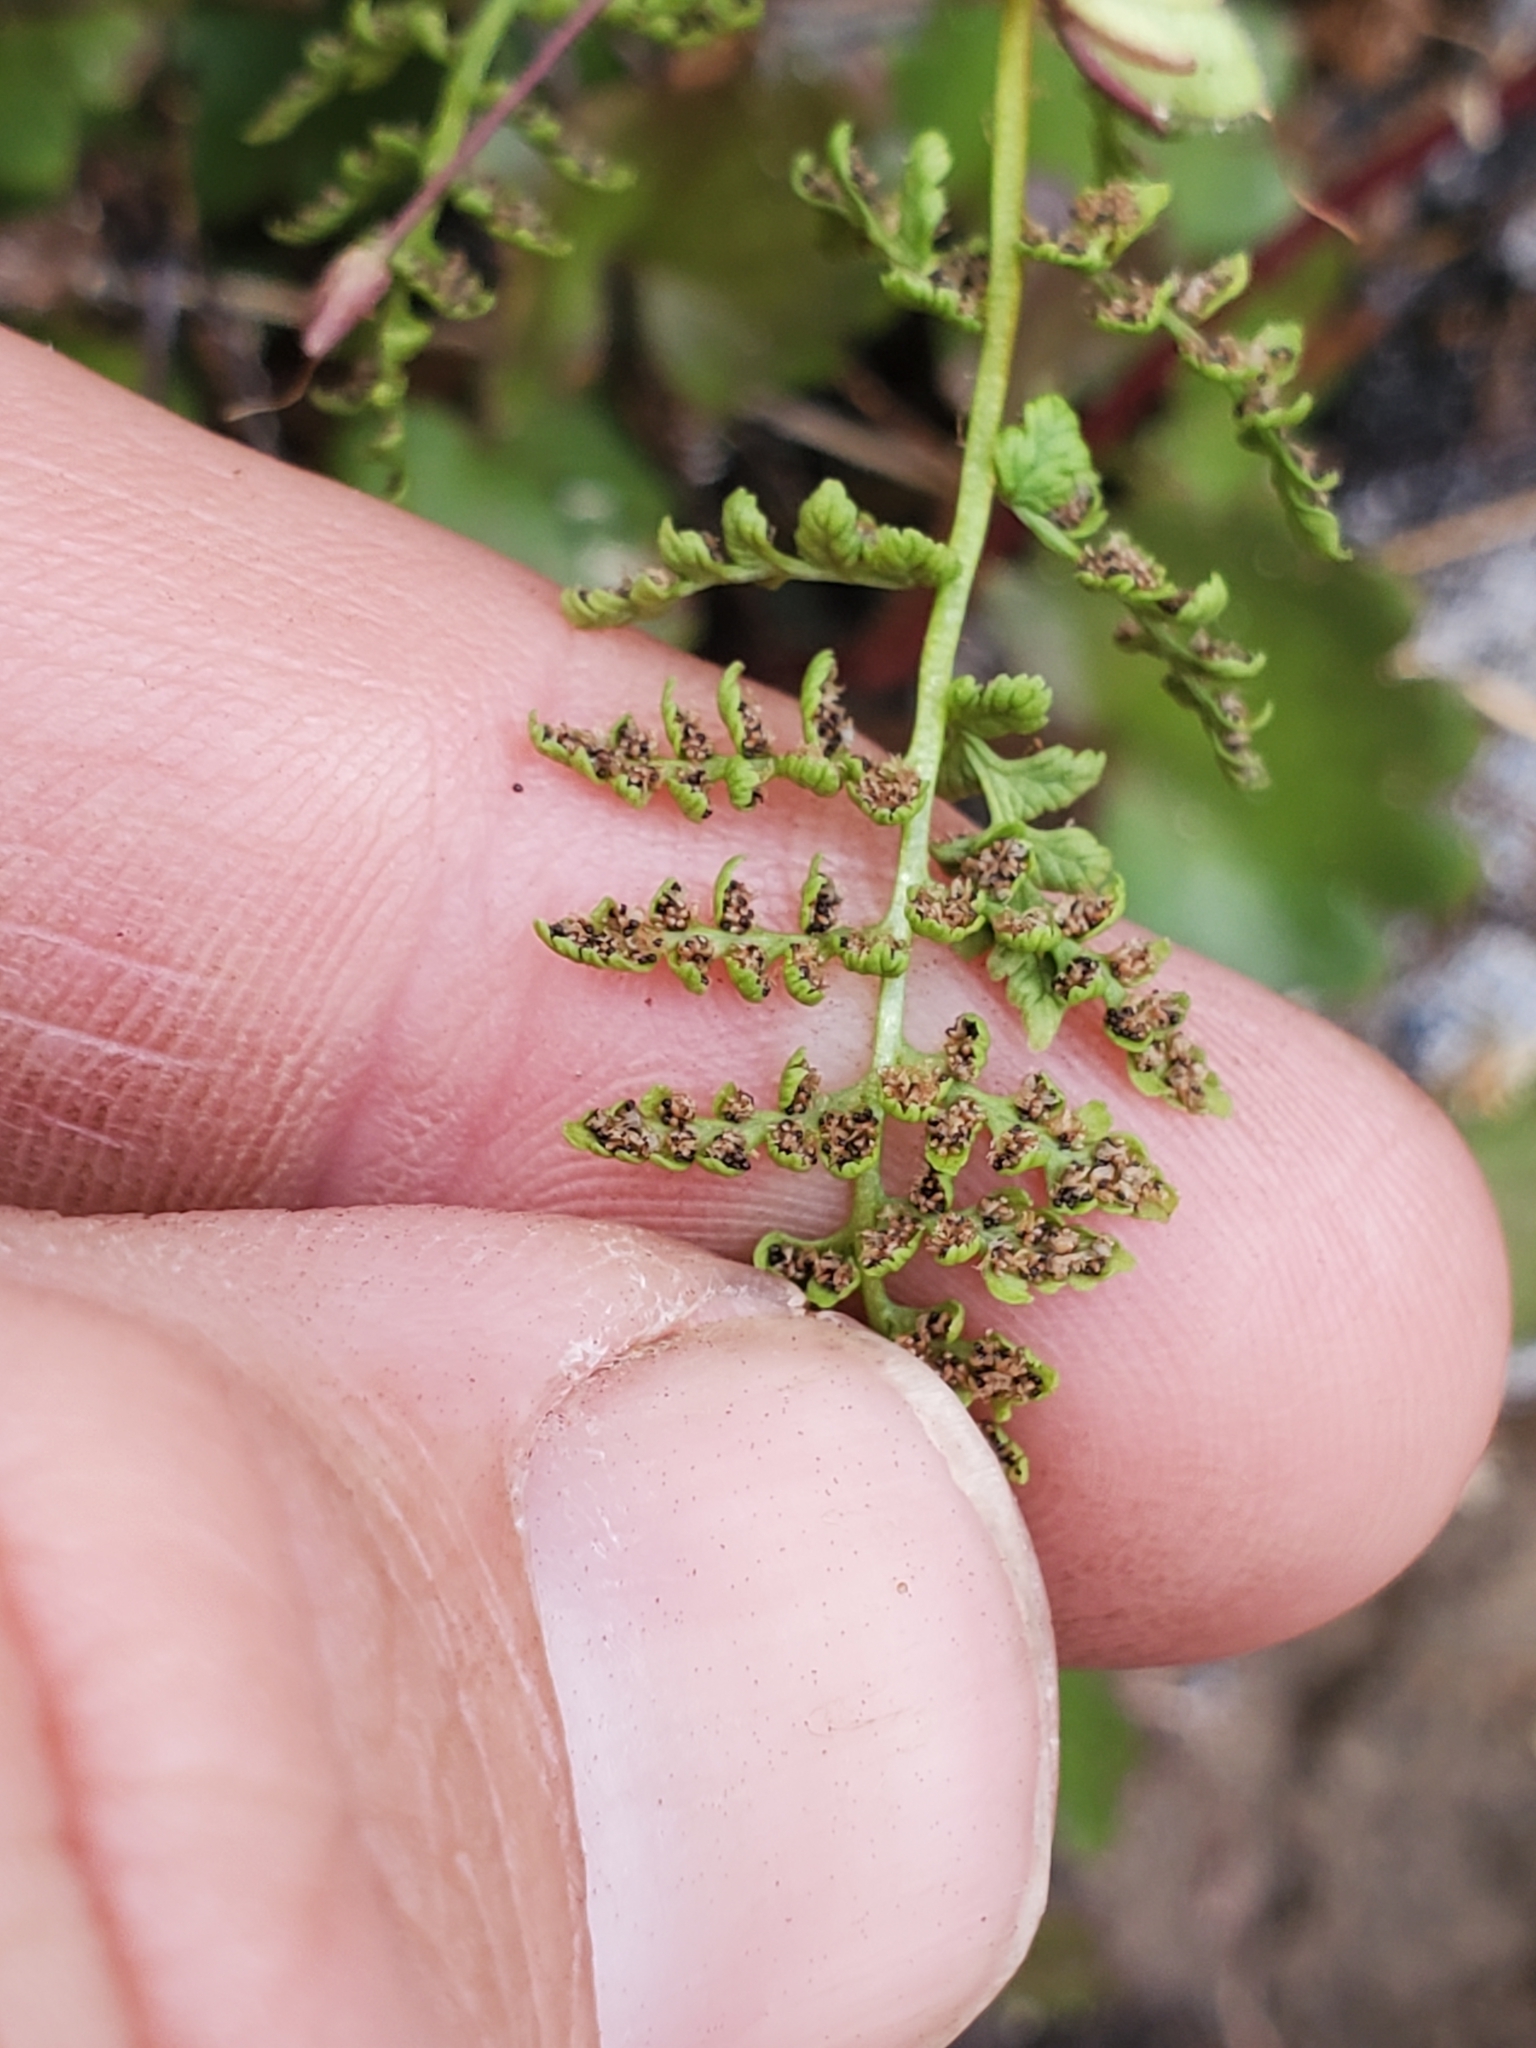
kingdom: Plantae
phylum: Tracheophyta
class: Polypodiopsida
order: Polypodiales
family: Cystopteridaceae
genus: Cystopteris
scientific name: Cystopteris fragilis
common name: Brittle bladder fern
